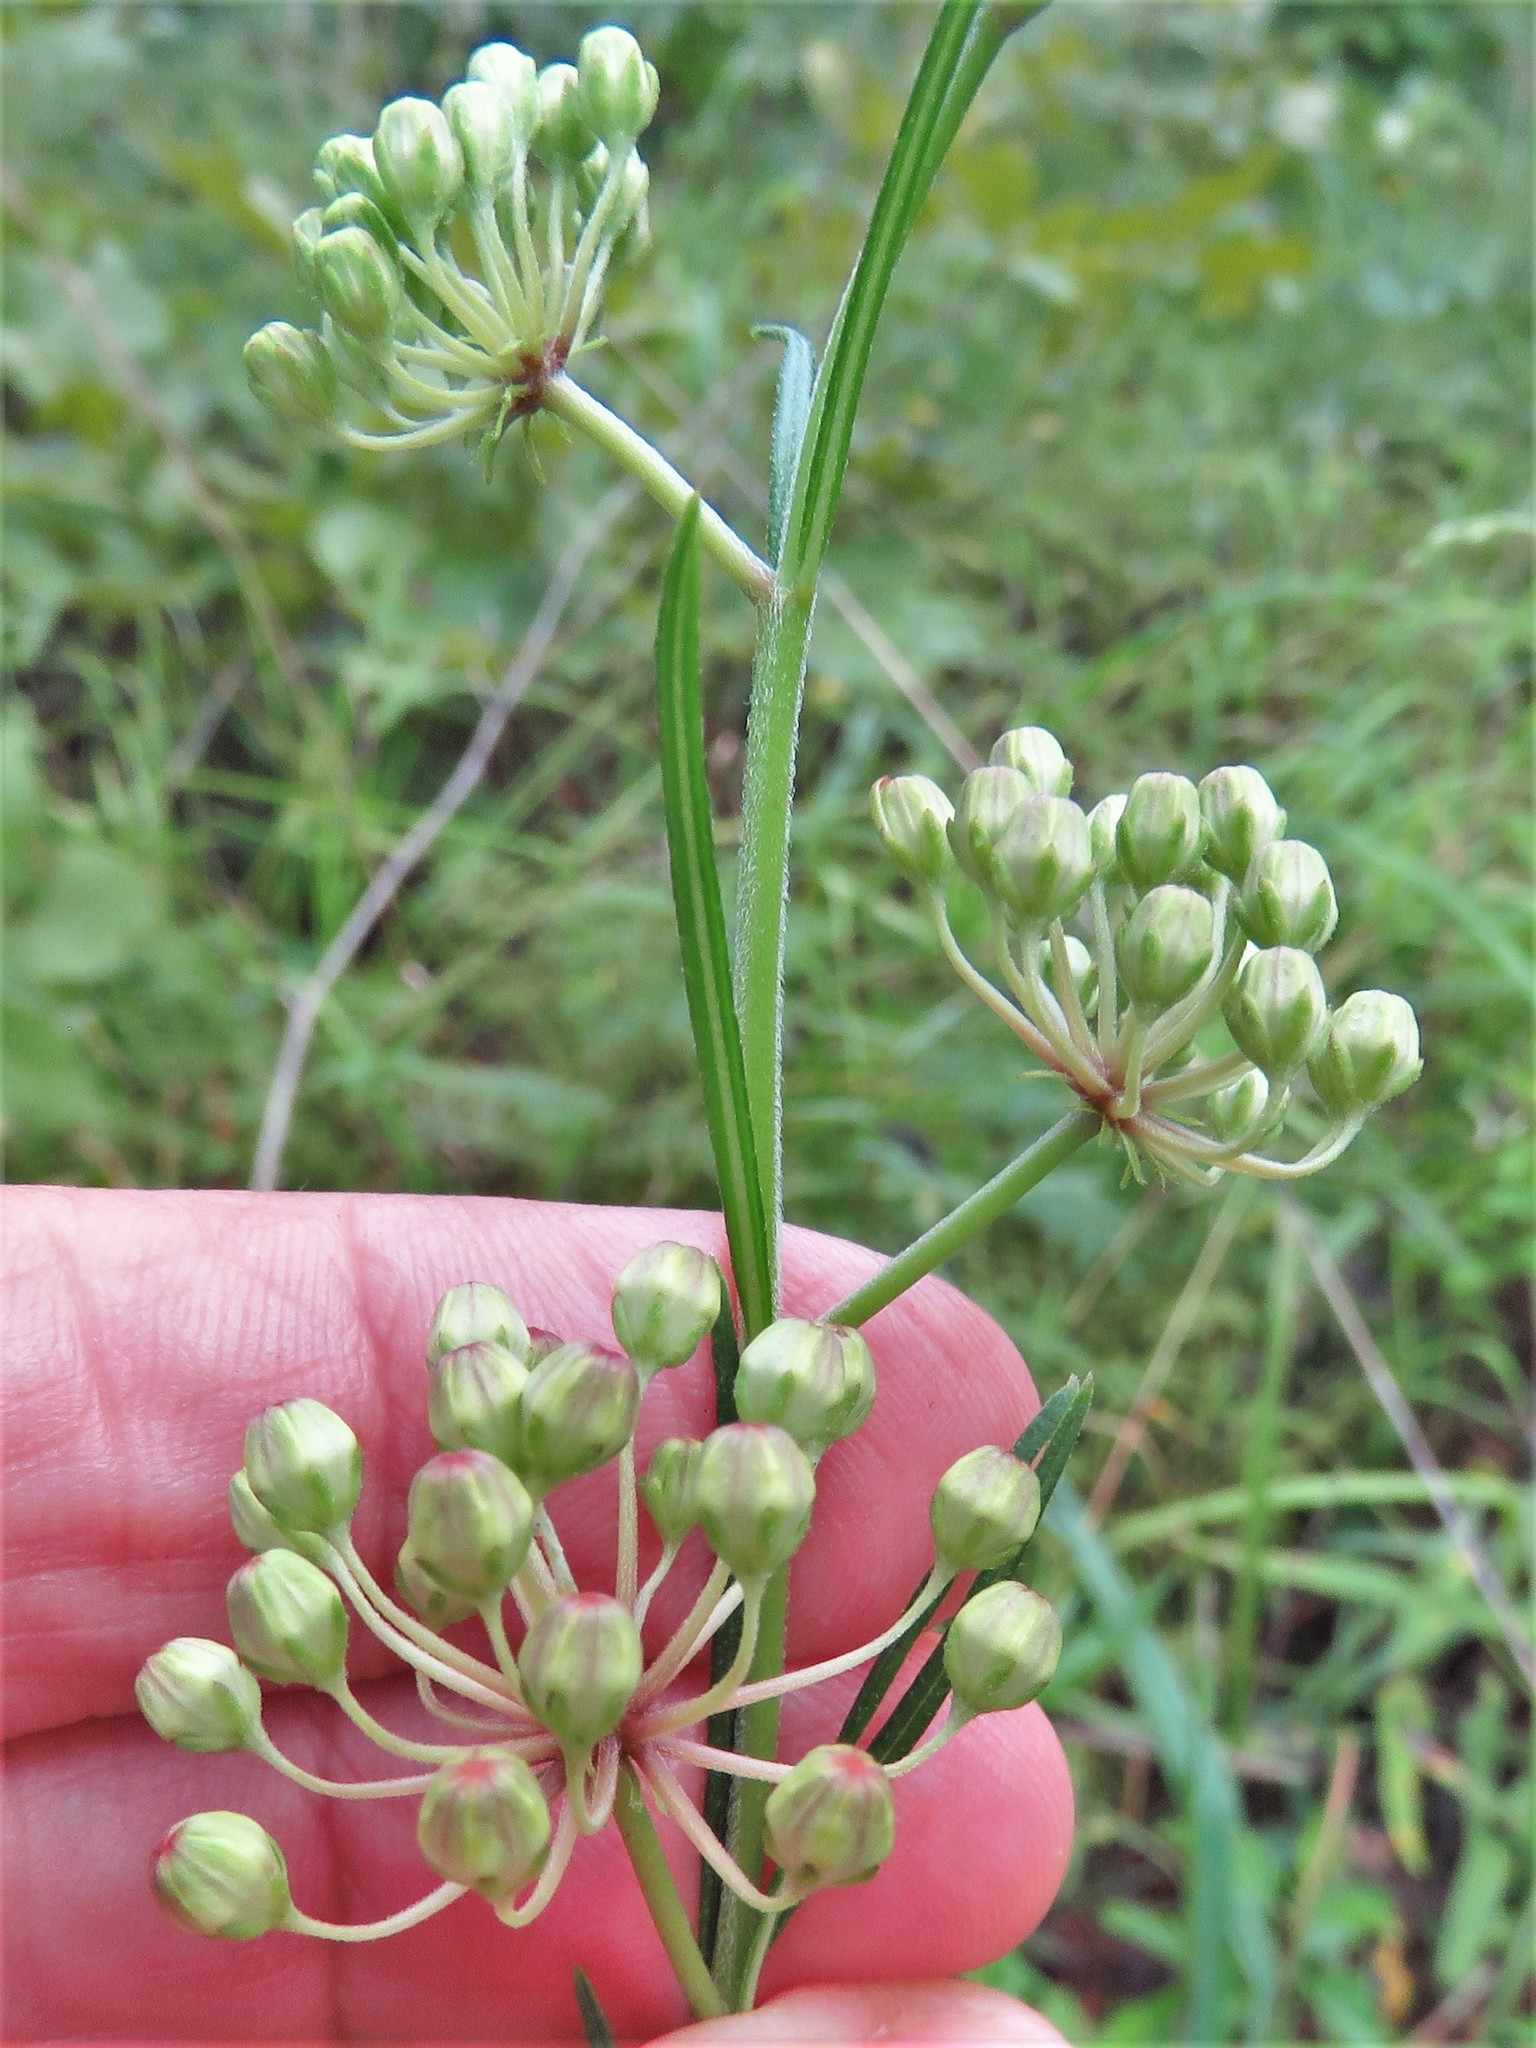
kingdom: Plantae
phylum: Tracheophyta
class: Magnoliopsida
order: Gentianales
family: Apocynaceae
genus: Asclepias
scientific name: Asclepias verticillata
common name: Eastern whorled milkweed
